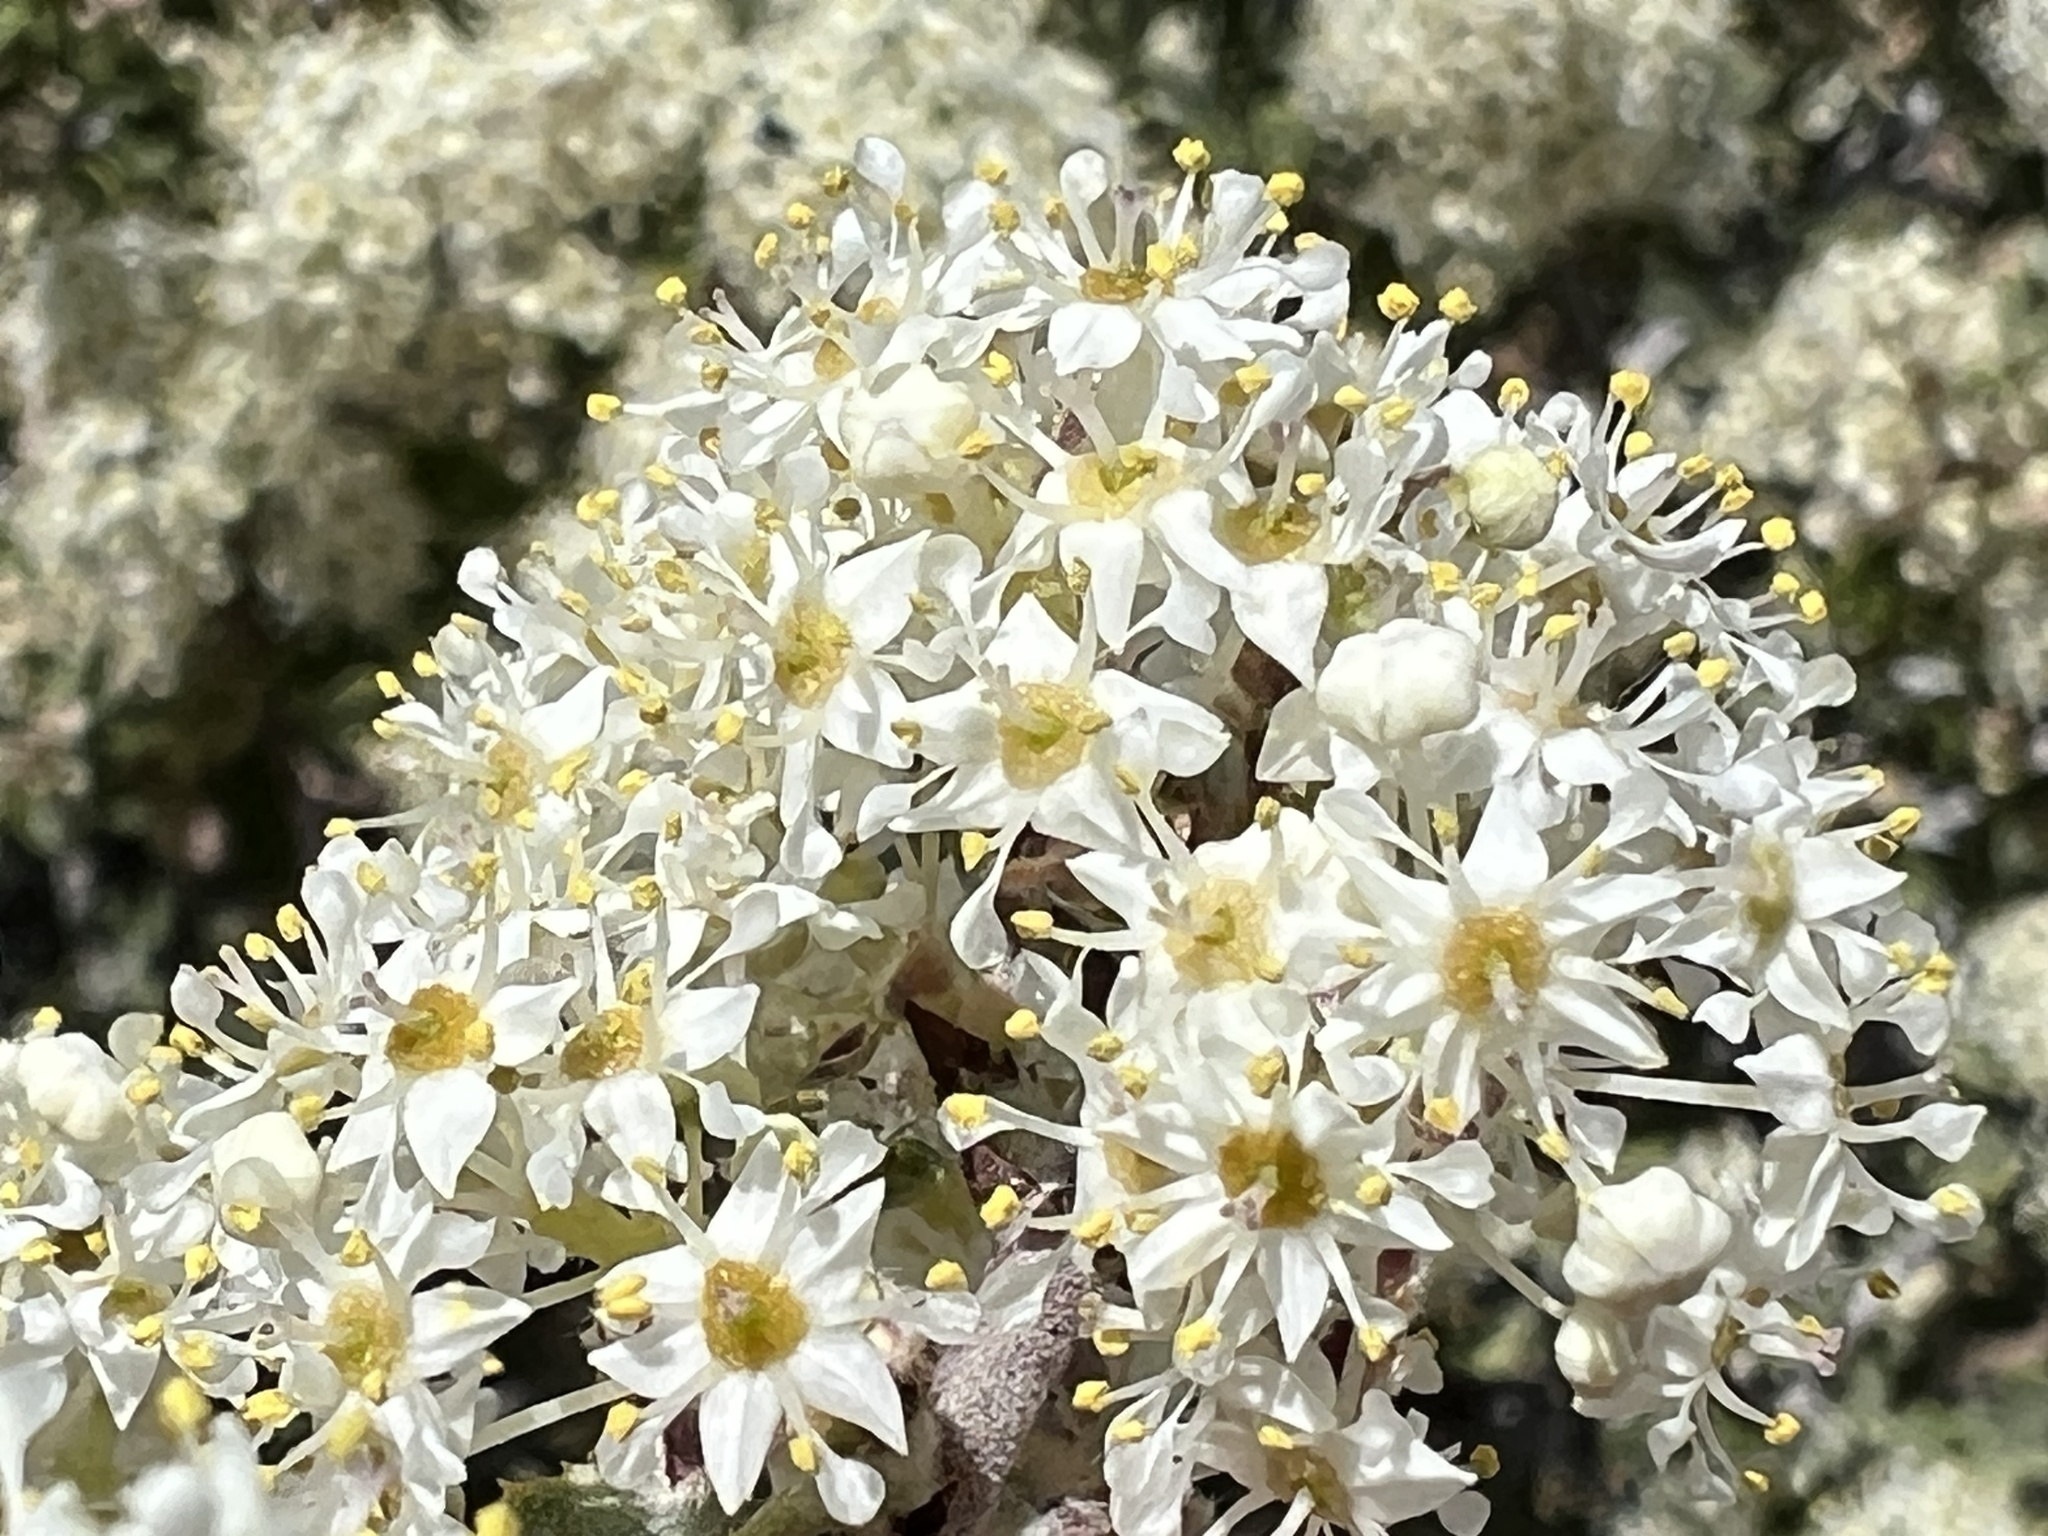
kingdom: Plantae
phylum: Tracheophyta
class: Magnoliopsida
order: Rosales
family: Rhamnaceae
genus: Ceanothus
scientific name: Ceanothus pauciflorus
